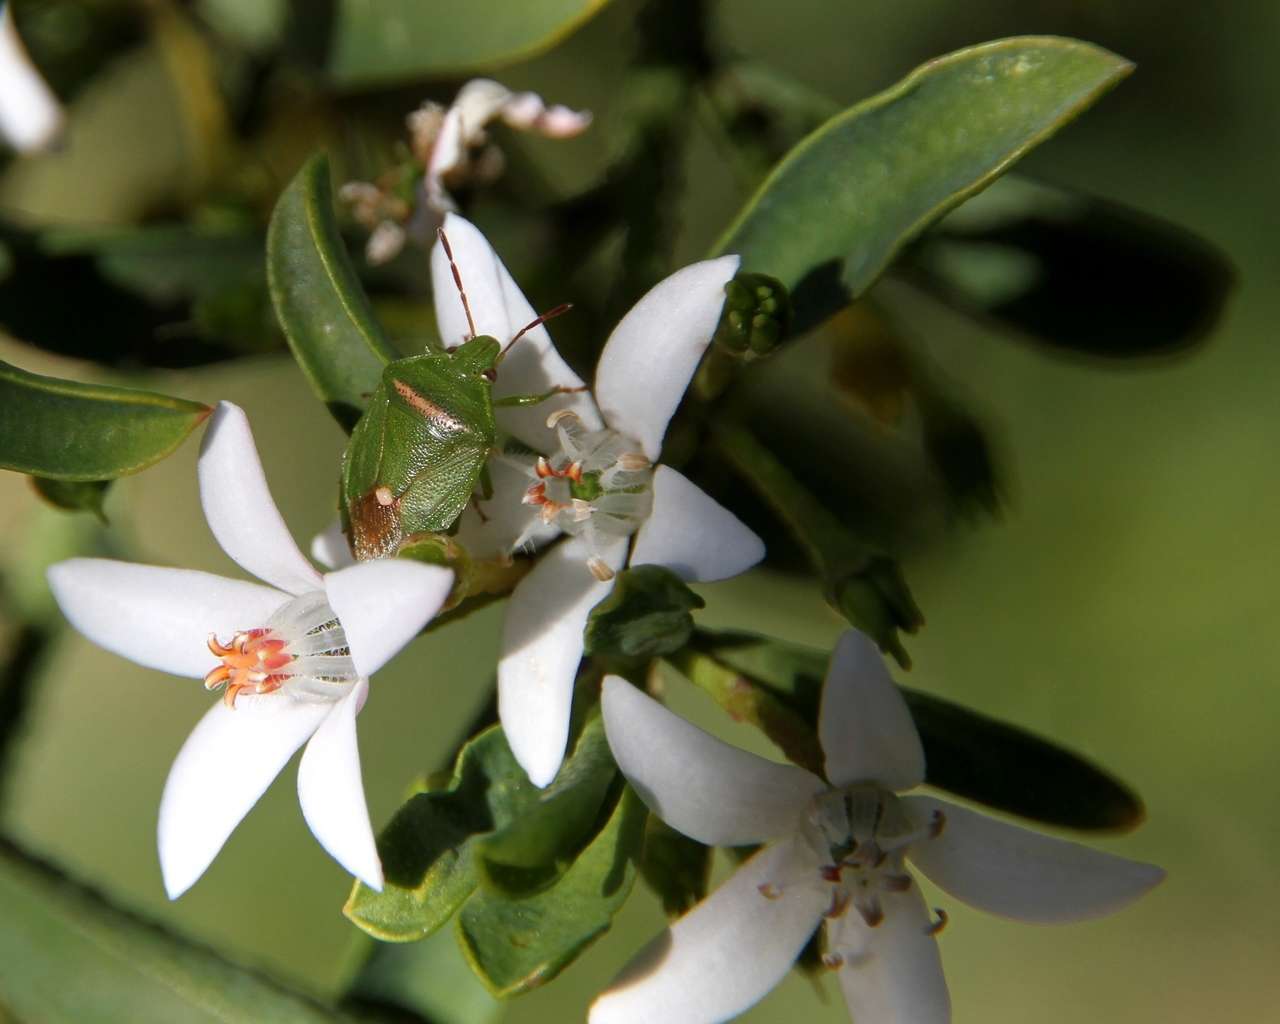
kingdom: Animalia
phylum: Arthropoda
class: Insecta
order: Hemiptera
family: Pentatomidae
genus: Ocirrhoe
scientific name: Ocirrhoe
